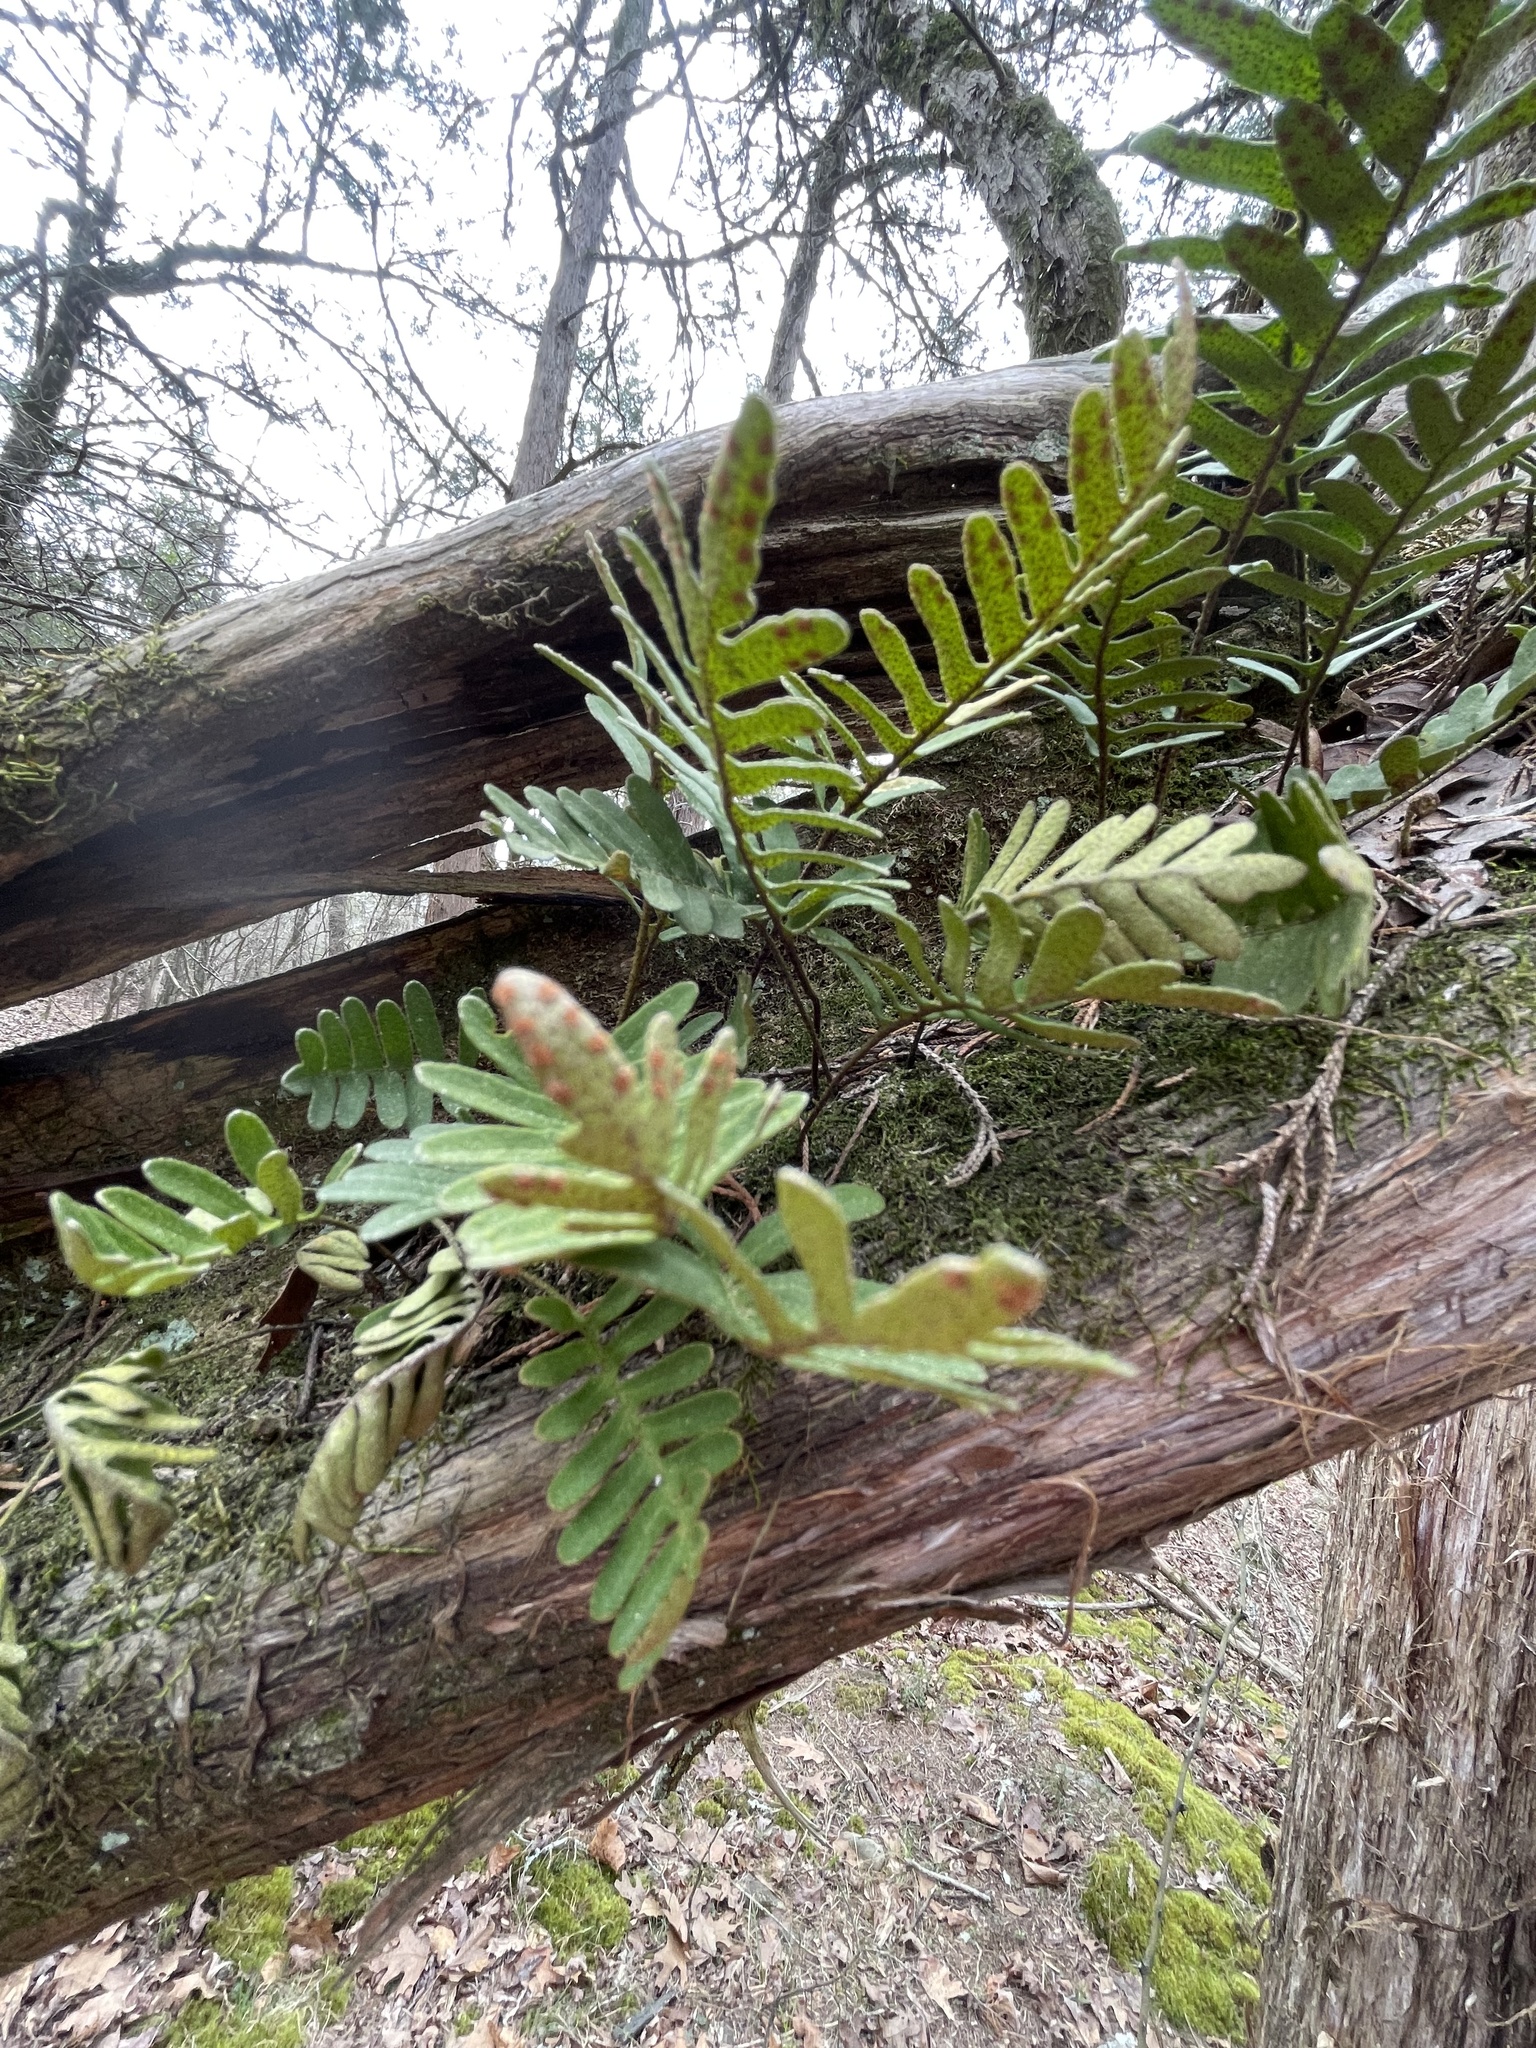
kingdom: Plantae
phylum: Tracheophyta
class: Polypodiopsida
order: Polypodiales
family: Polypodiaceae
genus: Pleopeltis
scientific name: Pleopeltis michauxiana
